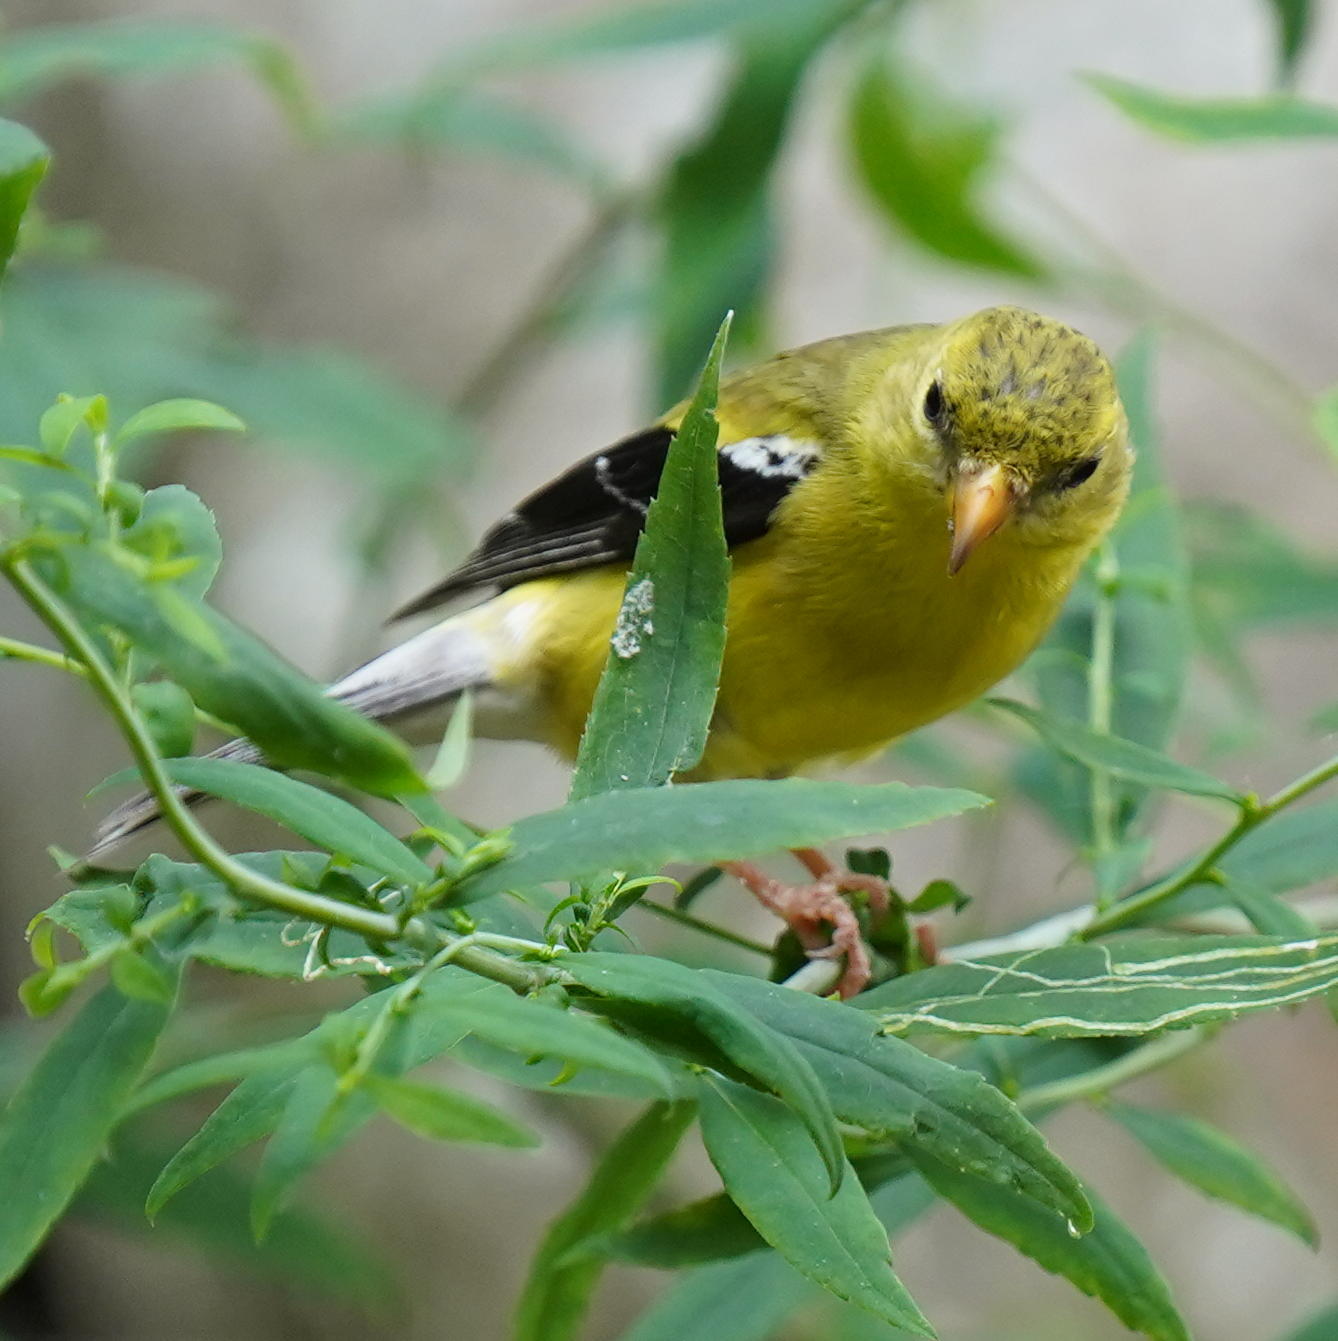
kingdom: Animalia
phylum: Chordata
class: Aves
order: Passeriformes
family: Fringillidae
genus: Spinus
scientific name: Spinus tristis
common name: American goldfinch
